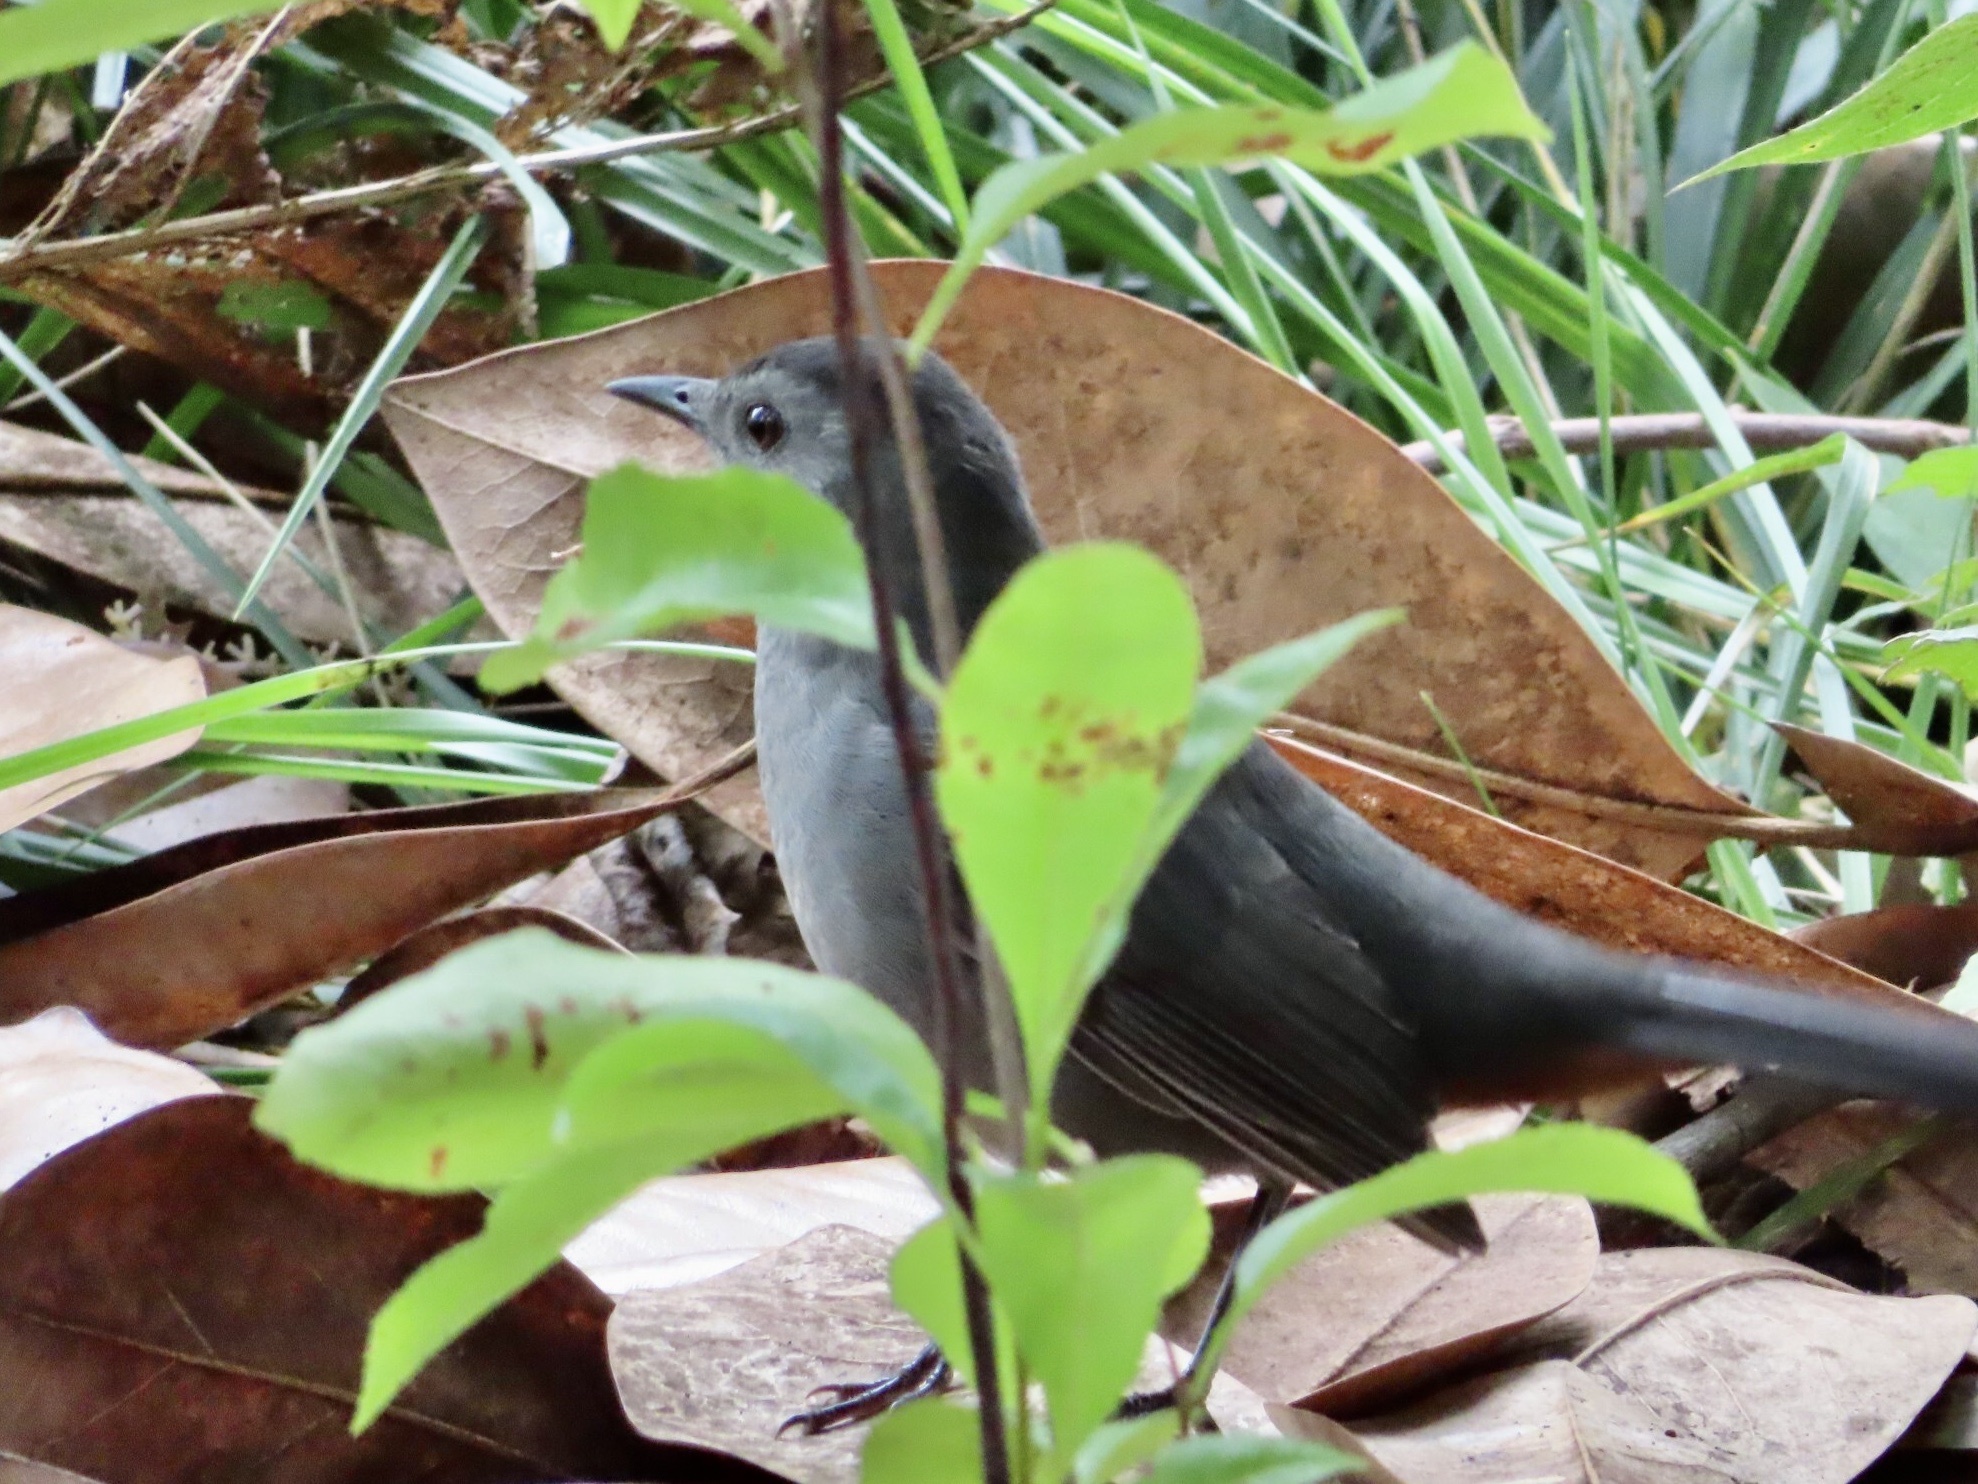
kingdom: Animalia
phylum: Chordata
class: Aves
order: Passeriformes
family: Mimidae
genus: Dumetella
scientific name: Dumetella carolinensis
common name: Gray catbird
